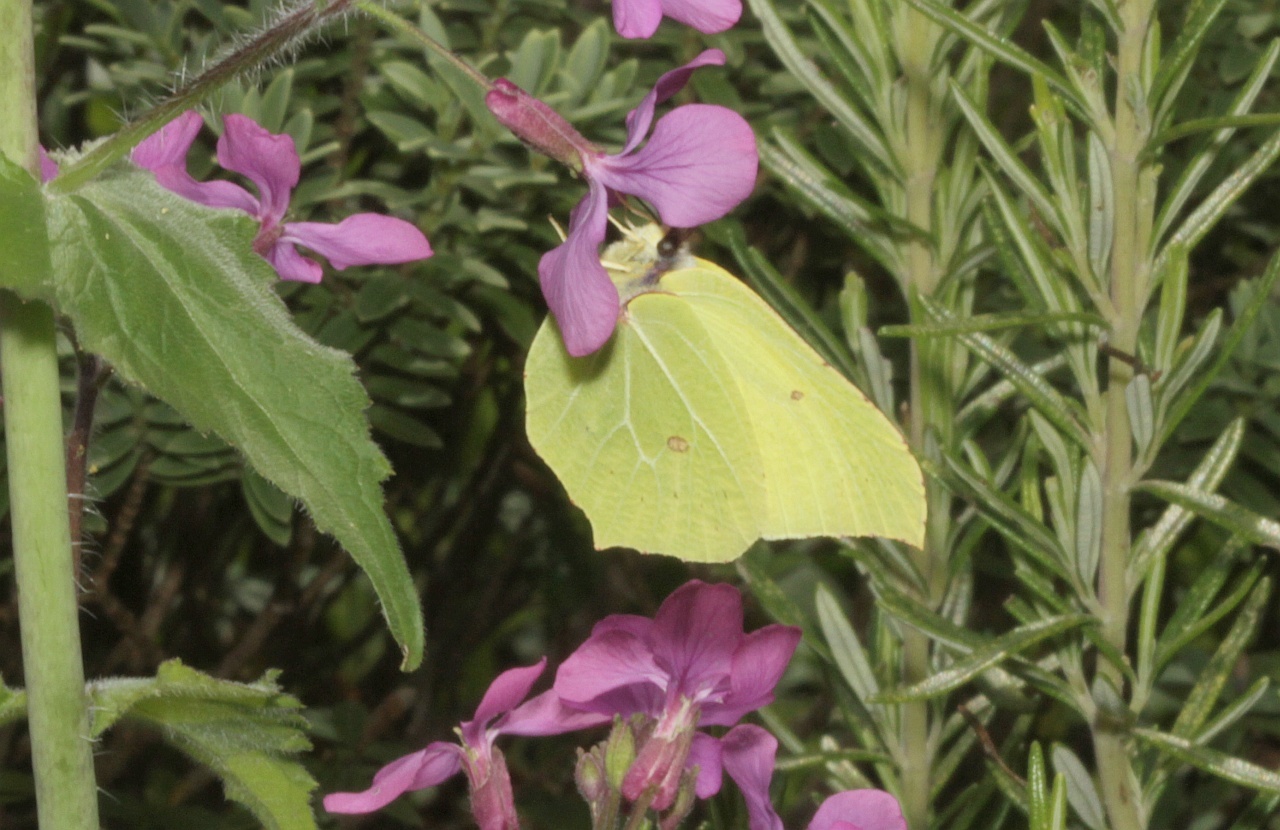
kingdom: Animalia
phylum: Arthropoda
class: Insecta
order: Lepidoptera
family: Pieridae
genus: Gonepteryx
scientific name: Gonepteryx rhamni
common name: Brimstone
